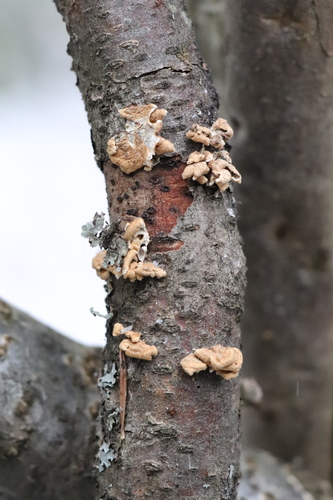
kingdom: Fungi
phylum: Basidiomycota
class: Agaricomycetes
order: Amylocorticiales
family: Amylocorticiaceae
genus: Plicaturopsis
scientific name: Plicaturopsis crispa
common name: Crimped gill
